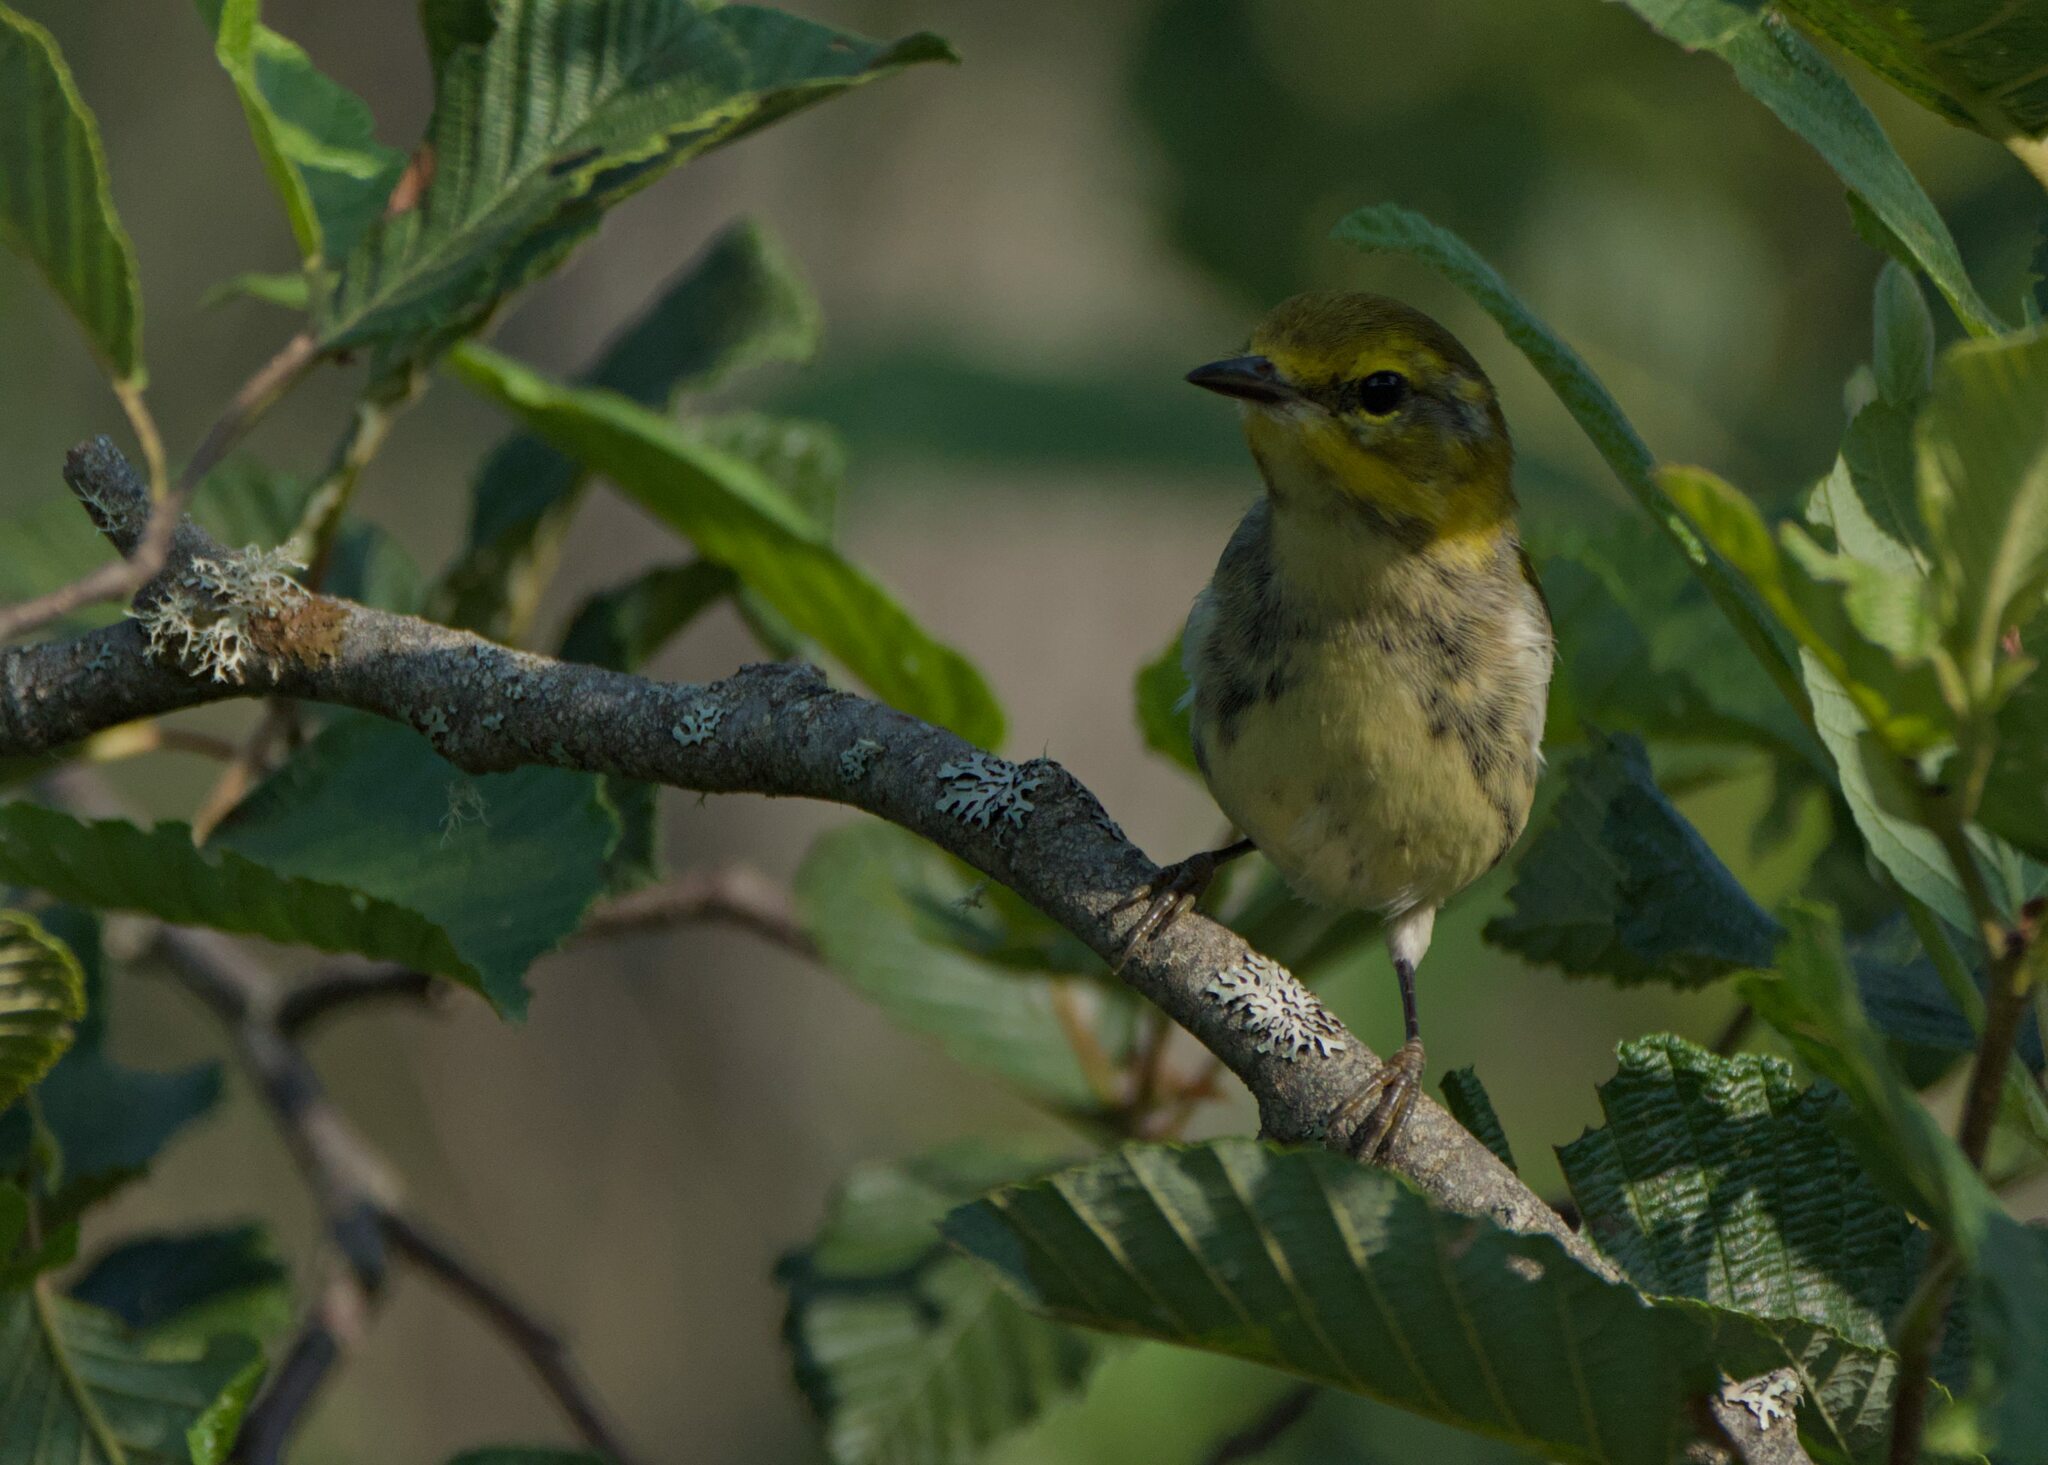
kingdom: Animalia
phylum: Chordata
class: Aves
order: Passeriformes
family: Parulidae
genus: Setophaga
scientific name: Setophaga virens
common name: Black-throated green warbler
